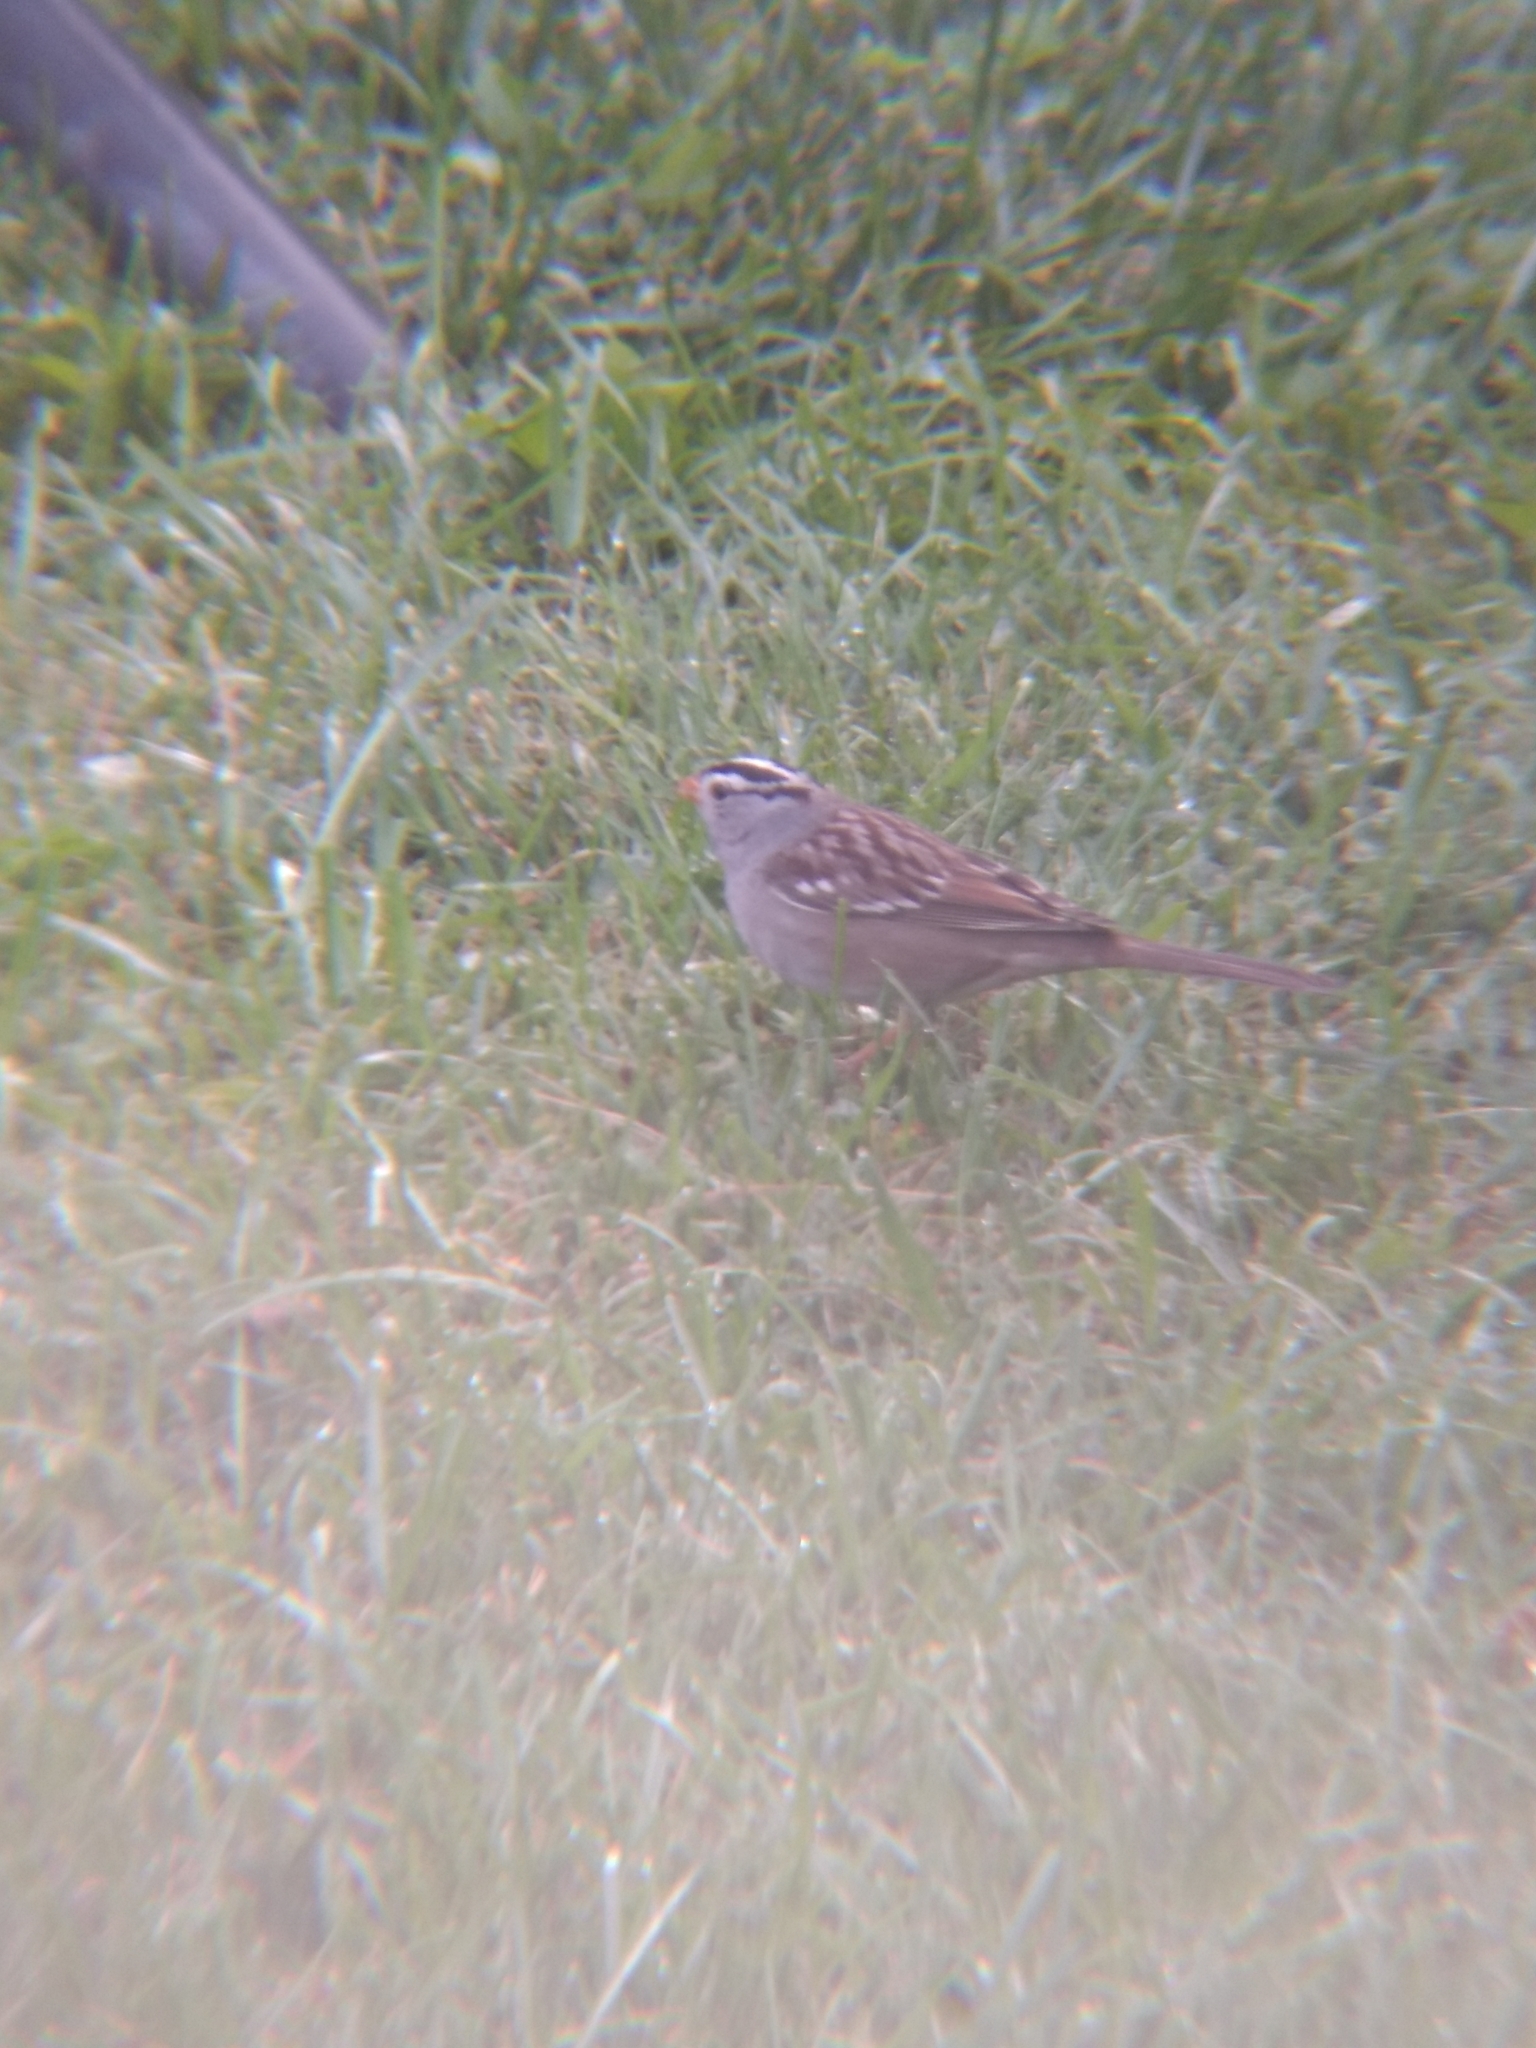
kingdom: Animalia
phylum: Chordata
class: Aves
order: Passeriformes
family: Passerellidae
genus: Zonotrichia
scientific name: Zonotrichia leucophrys
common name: White-crowned sparrow
